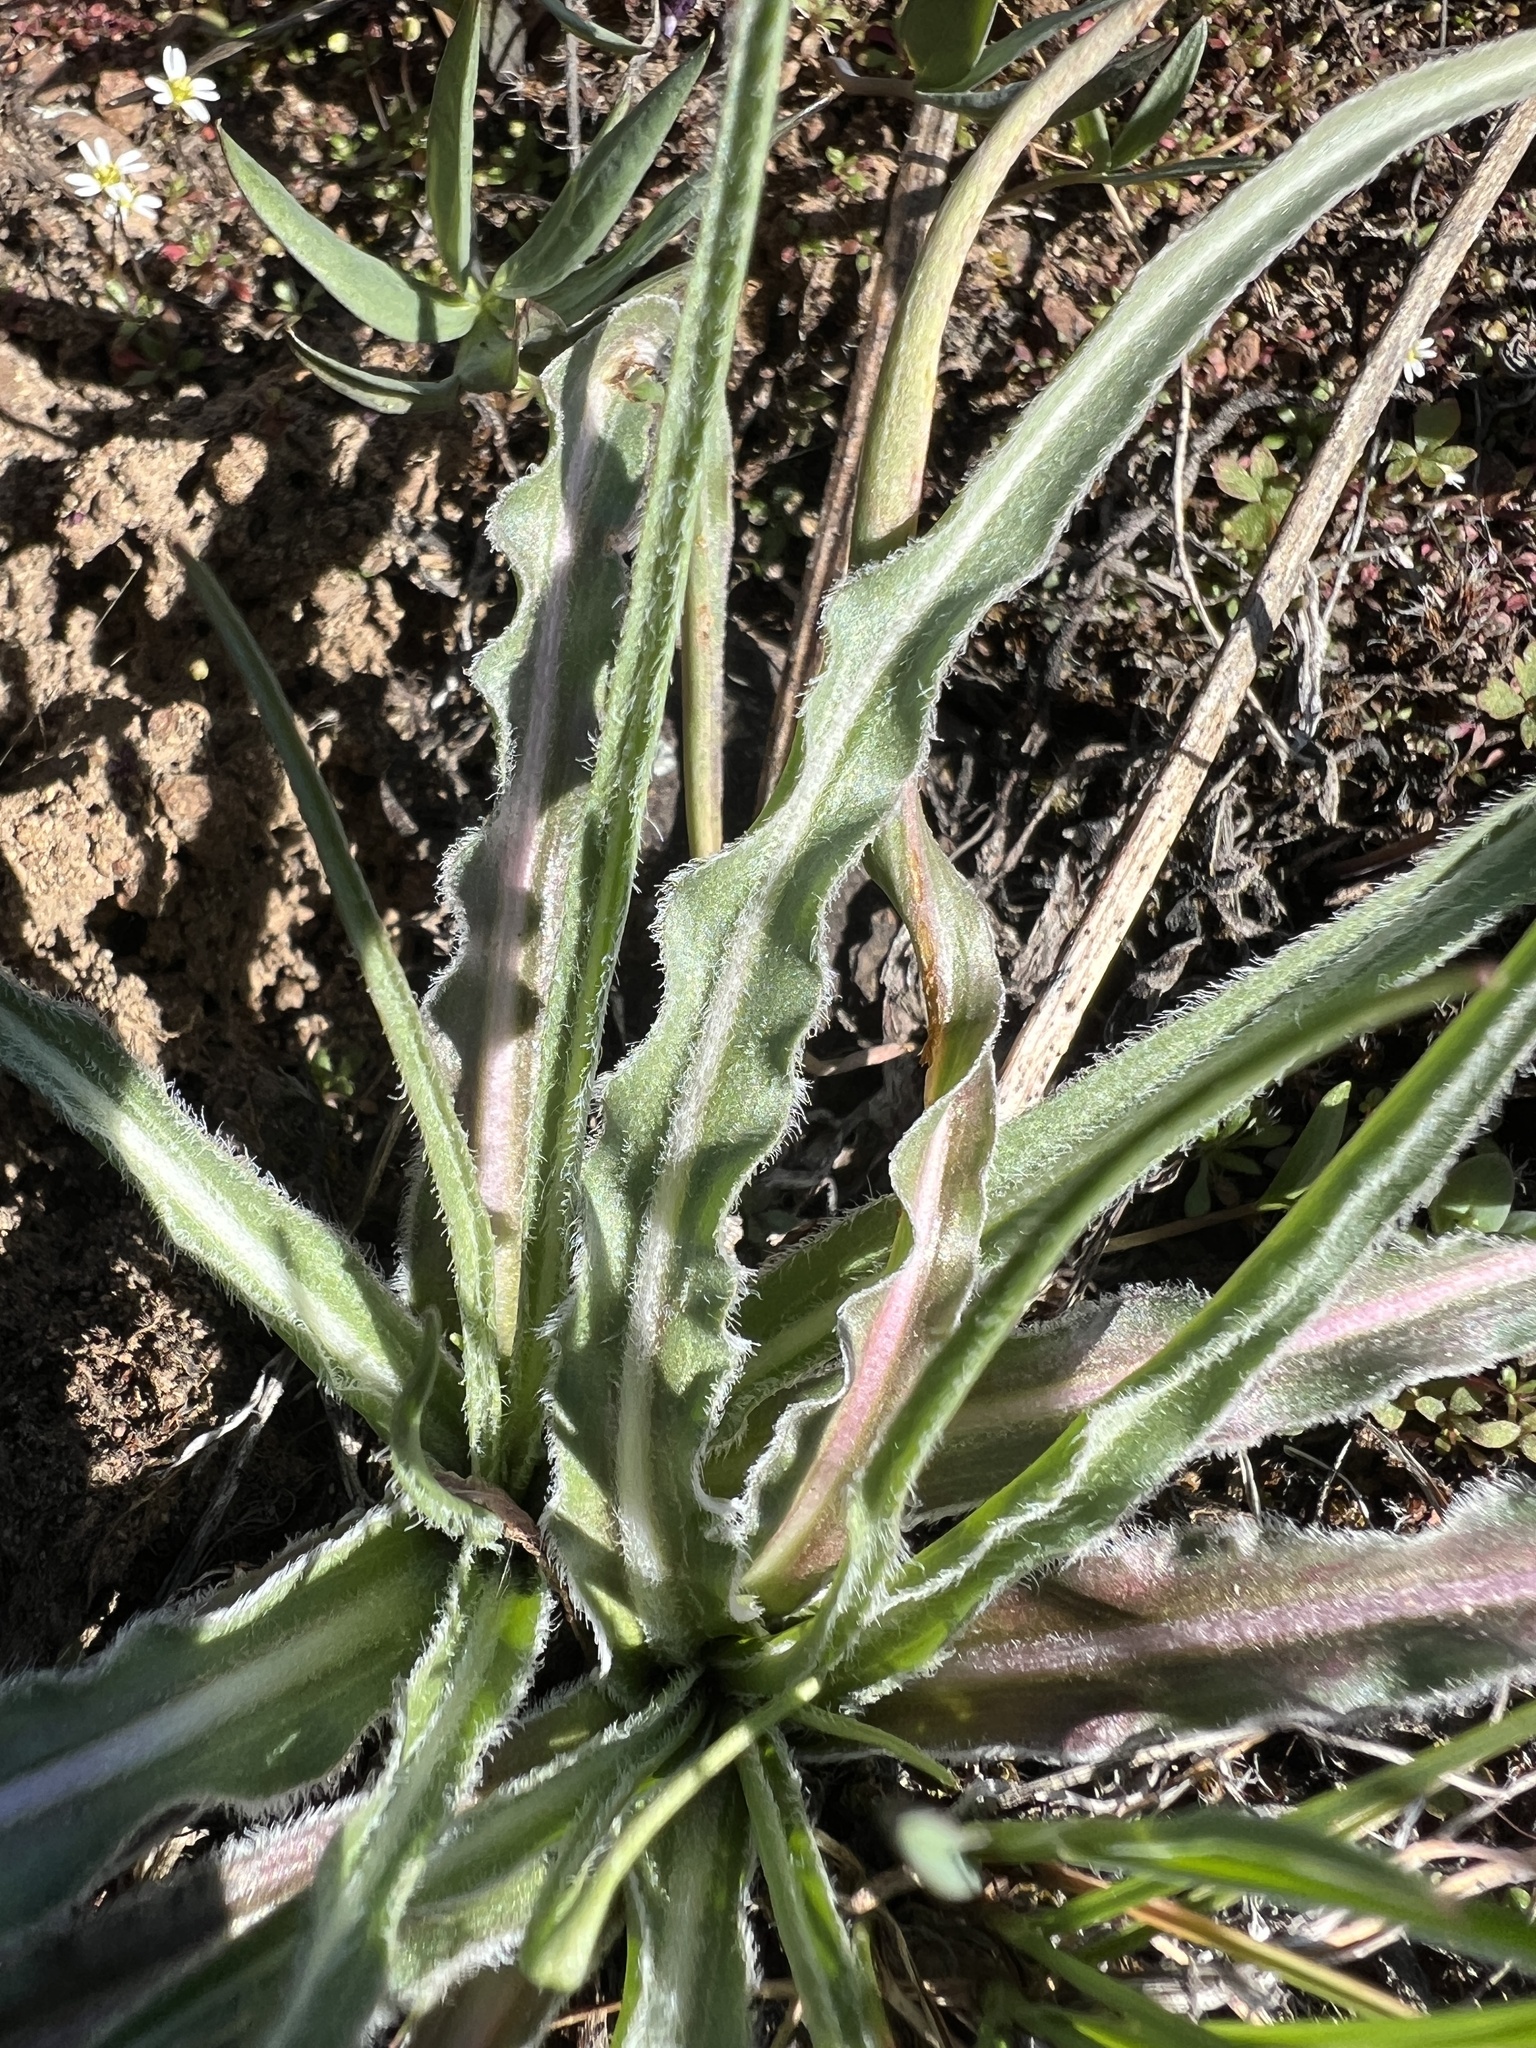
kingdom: Plantae
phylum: Tracheophyta
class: Magnoliopsida
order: Asterales
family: Asteraceae
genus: Microseris
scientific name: Microseris troximoides
